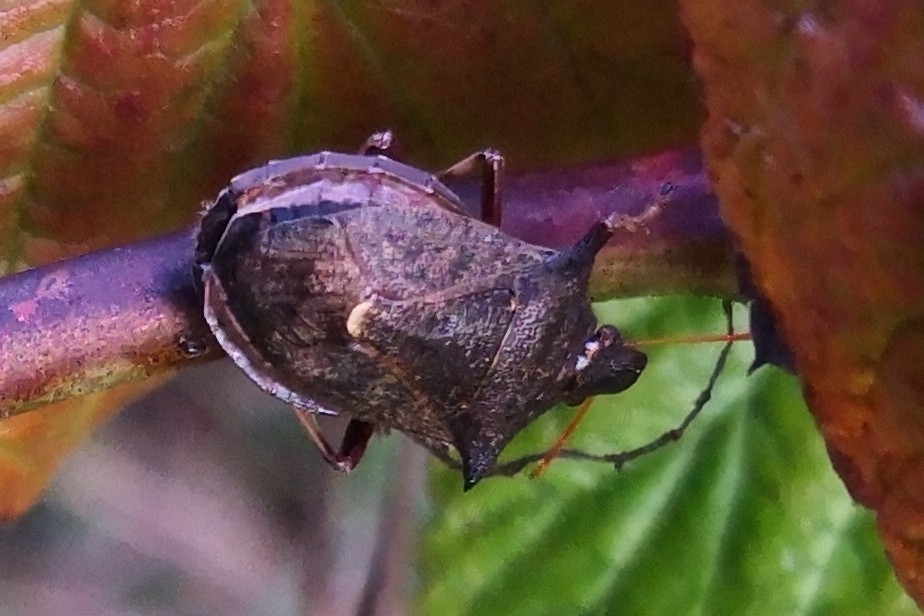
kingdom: Animalia
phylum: Arthropoda
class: Insecta
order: Hemiptera
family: Pentatomidae
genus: Picromerus
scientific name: Picromerus bidens
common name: Spiked shieldbug
